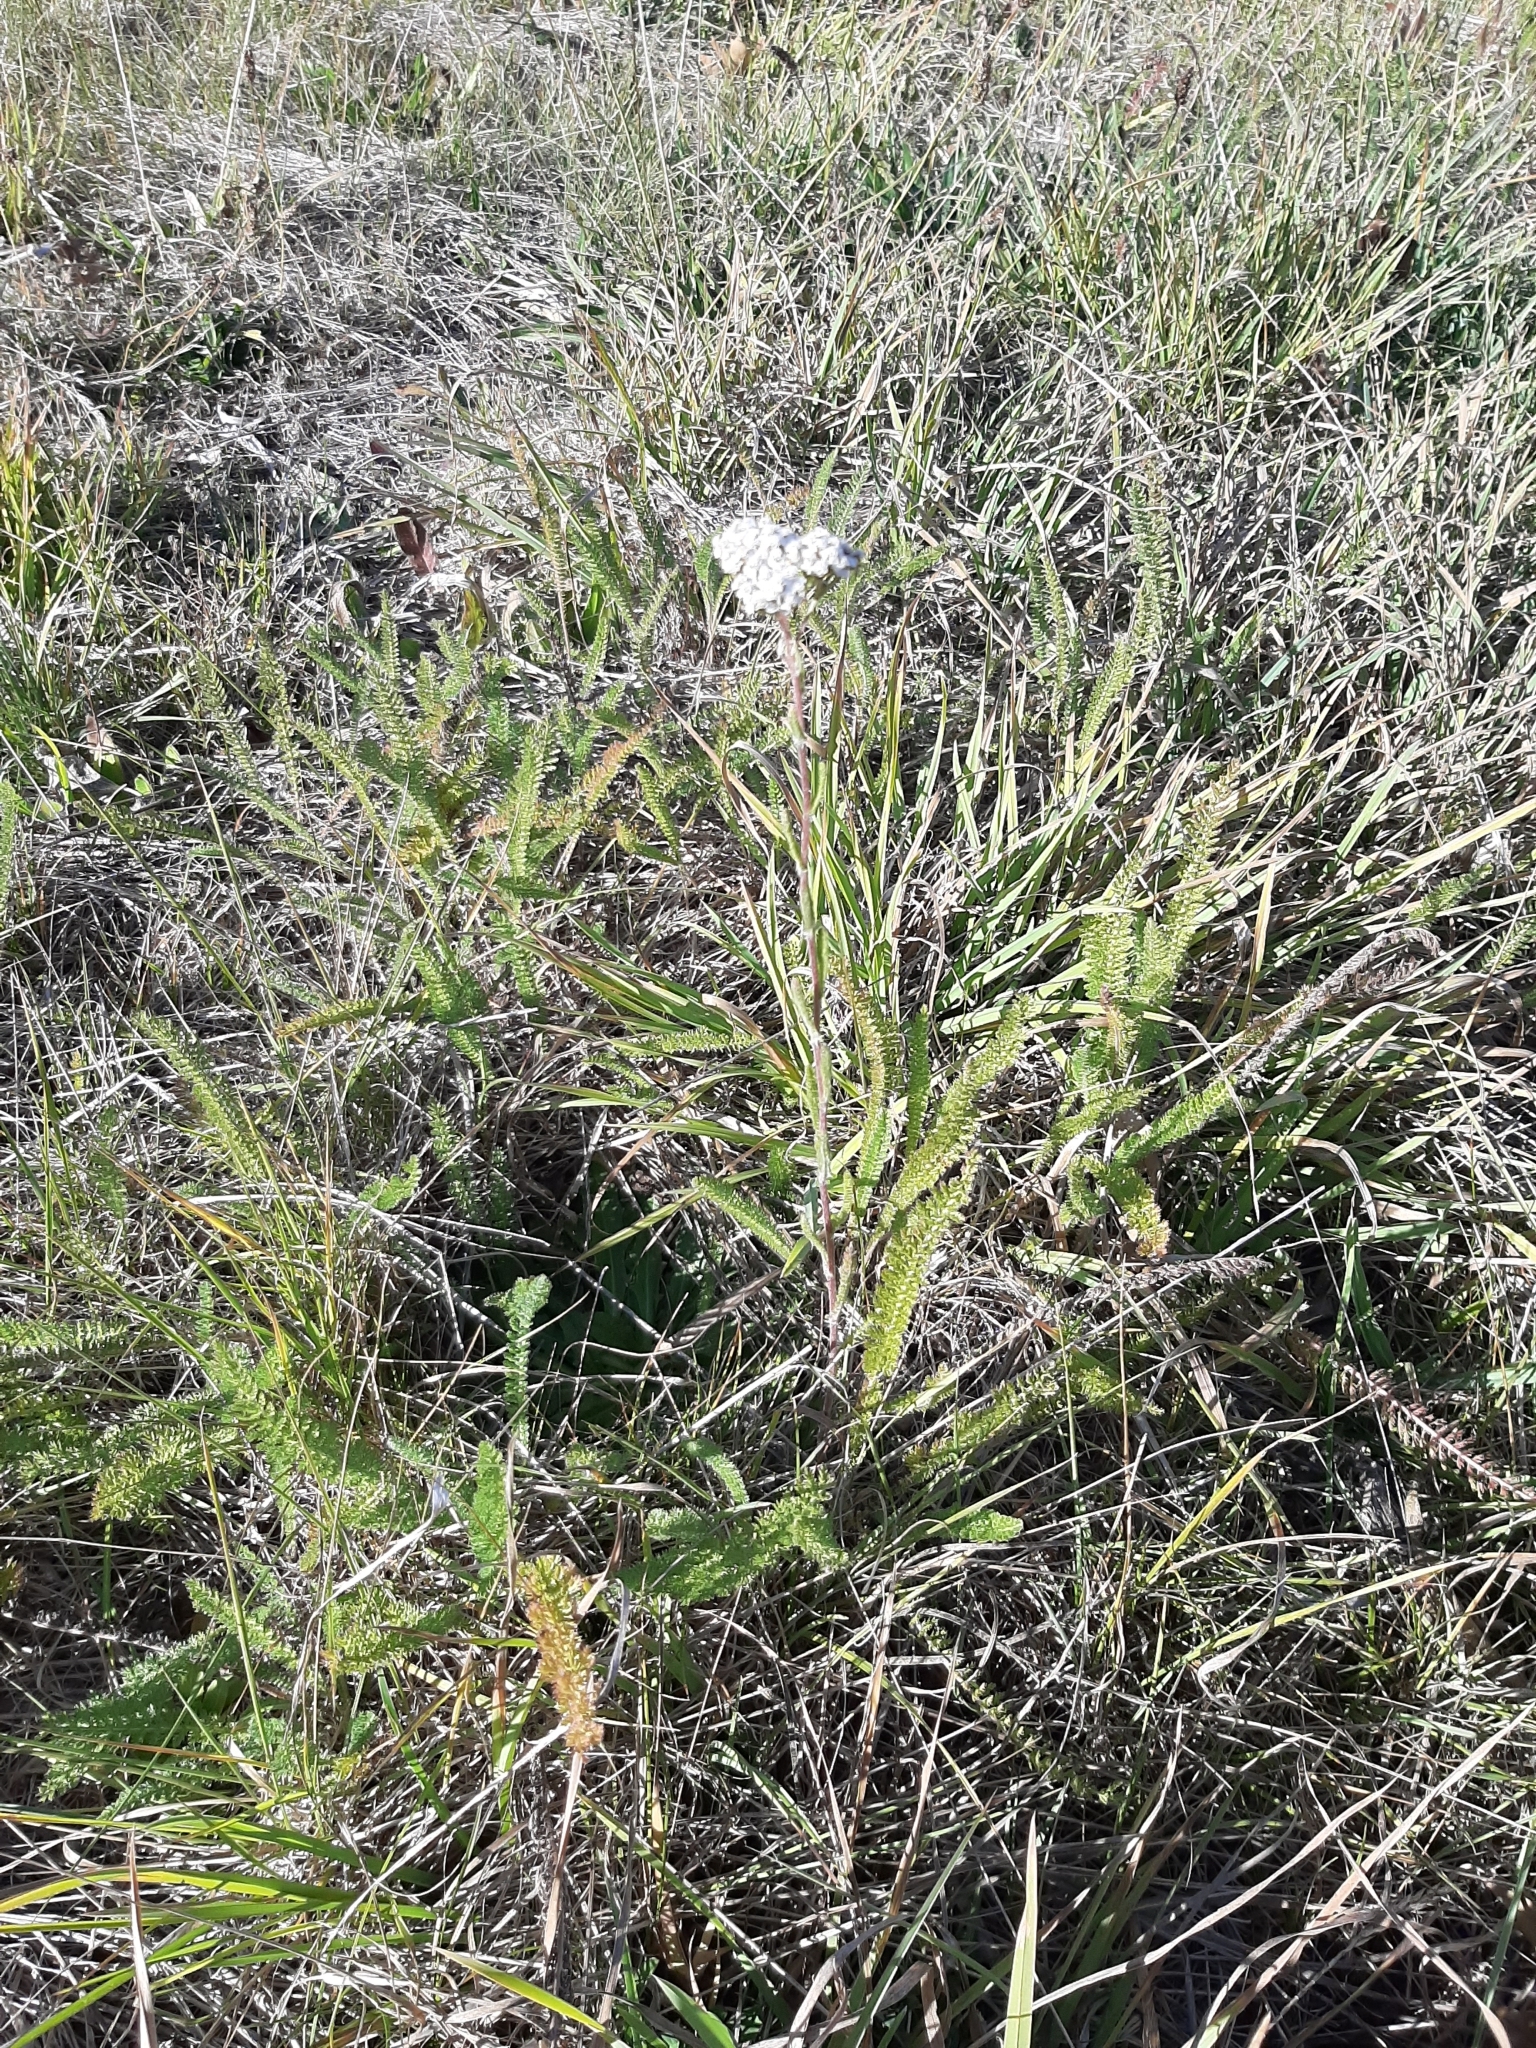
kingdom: Plantae
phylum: Tracheophyta
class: Magnoliopsida
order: Asterales
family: Asteraceae
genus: Achillea
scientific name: Achillea millefolium
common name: Yarrow
